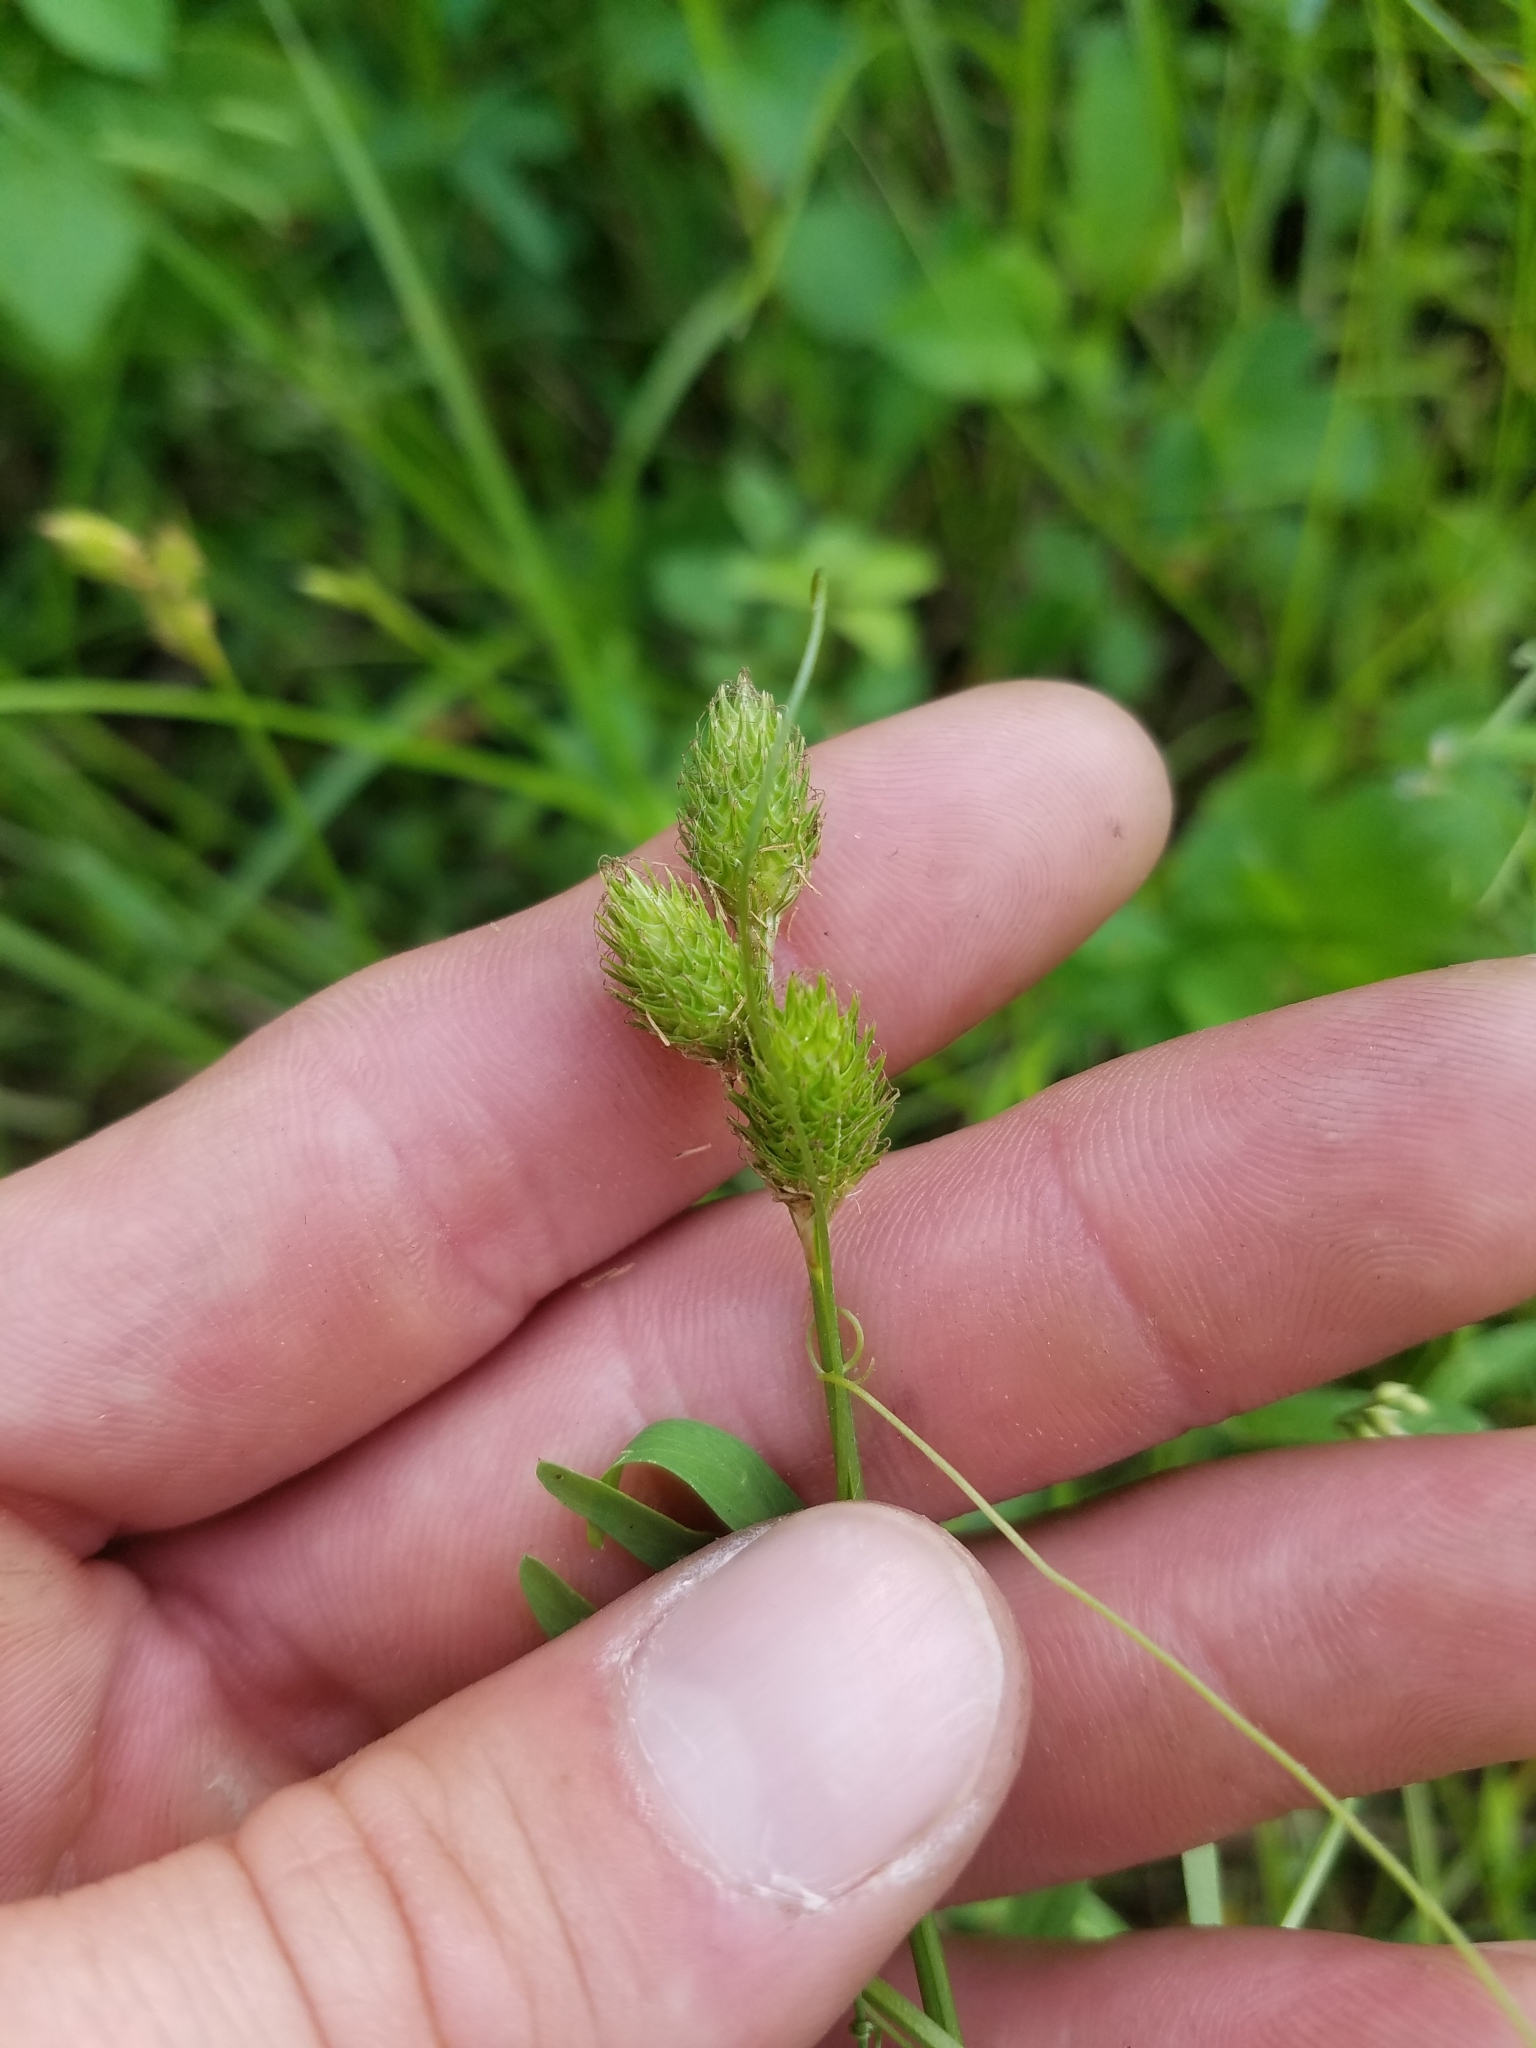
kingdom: Plantae
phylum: Tracheophyta
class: Liliopsida
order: Poales
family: Cyperaceae
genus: Carex
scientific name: Carex longii
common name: Long's sedge
